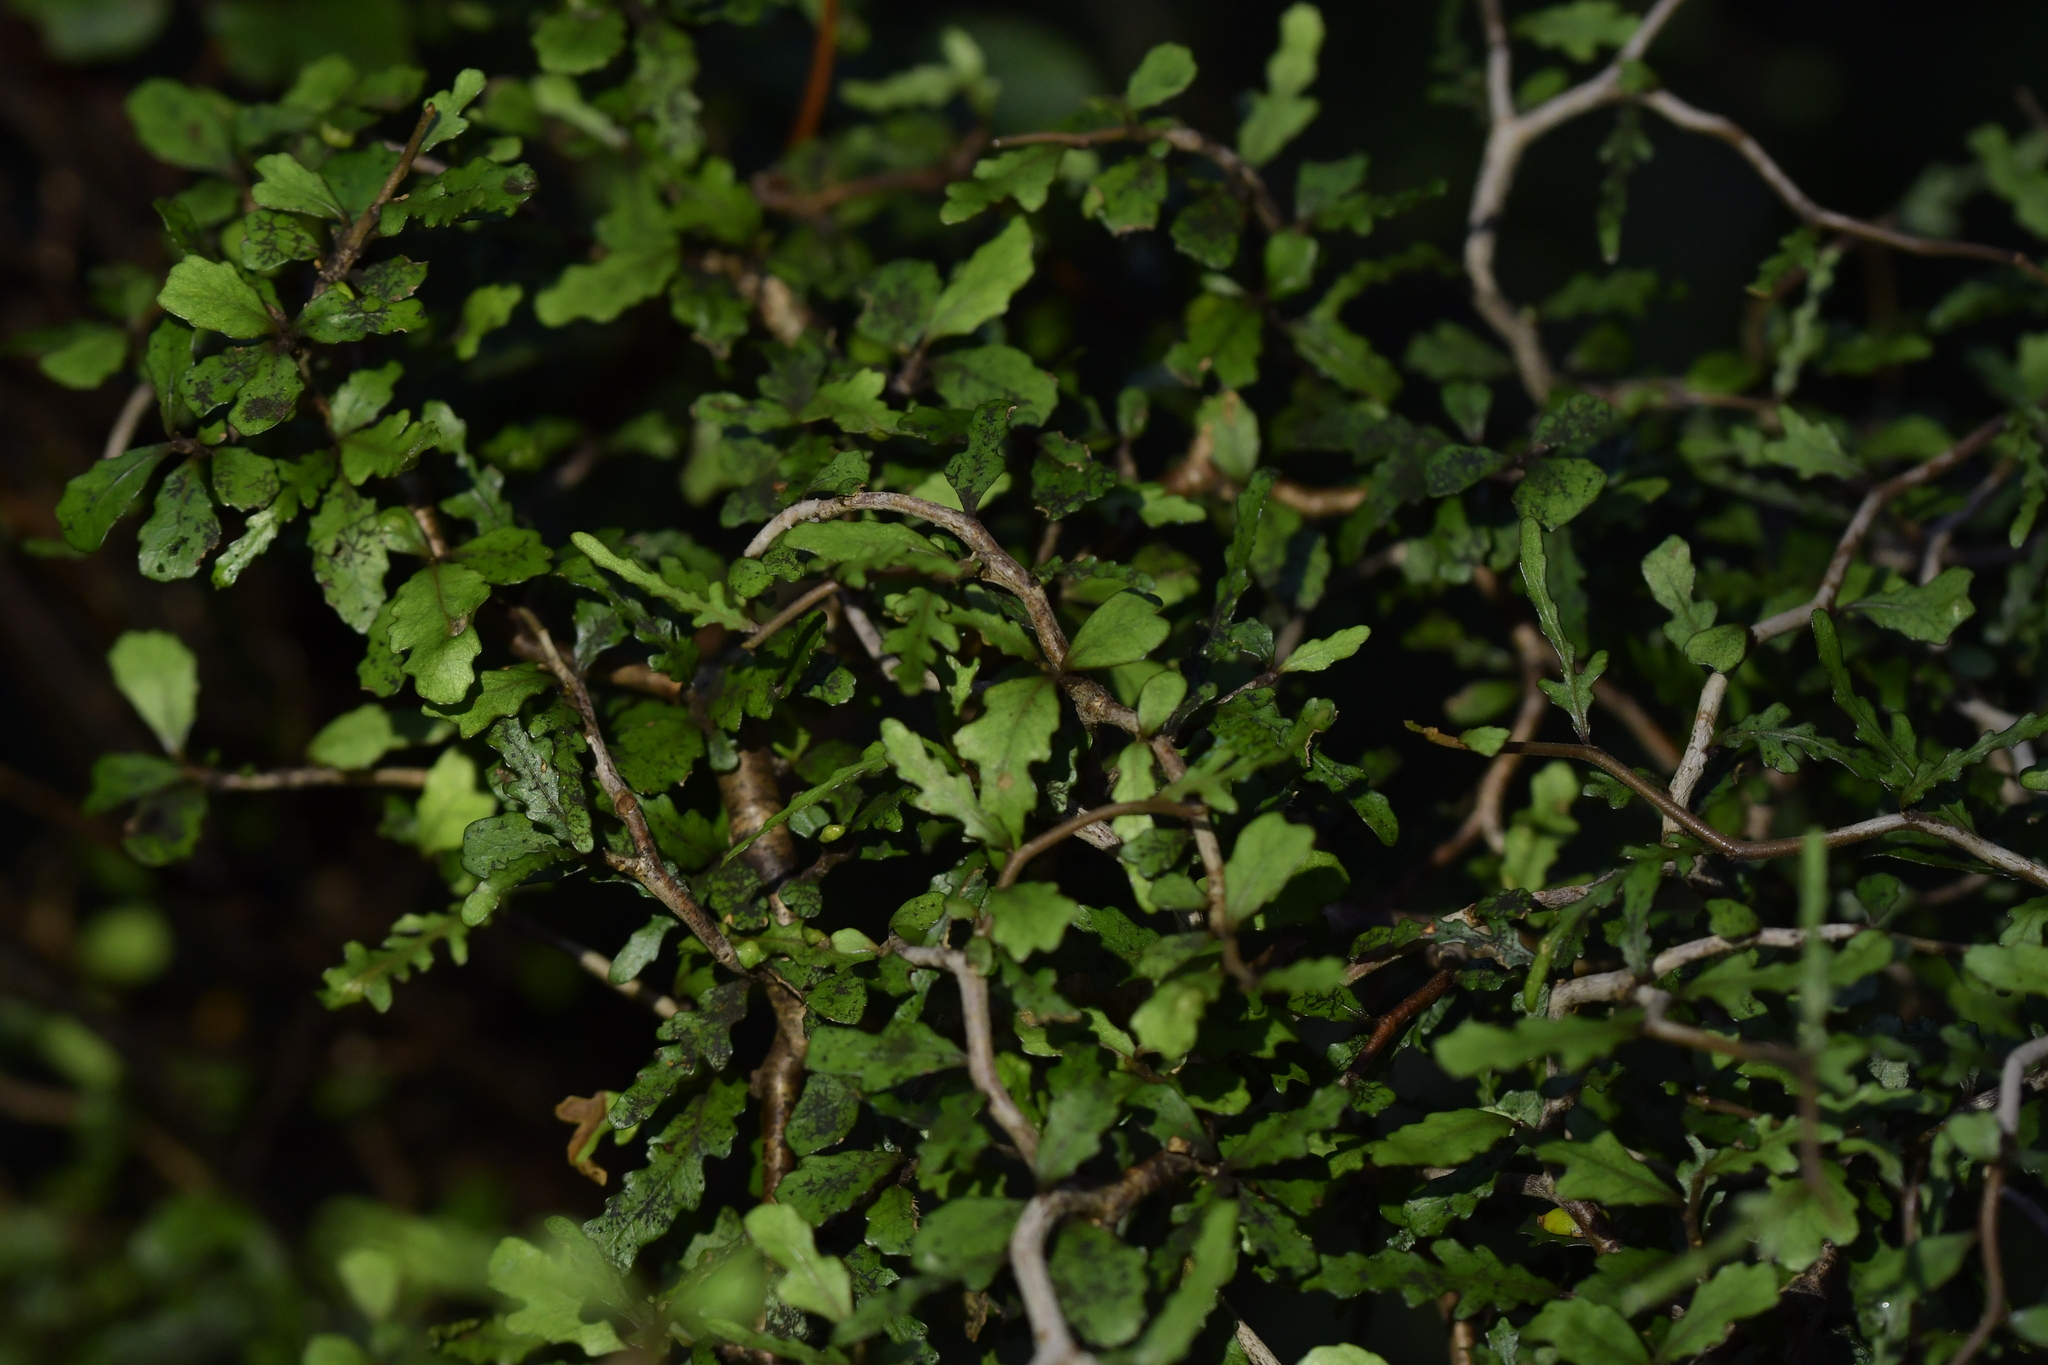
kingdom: Plantae
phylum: Tracheophyta
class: Magnoliopsida
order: Oxalidales
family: Elaeocarpaceae
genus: Elaeocarpus
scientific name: Elaeocarpus hookerianus
